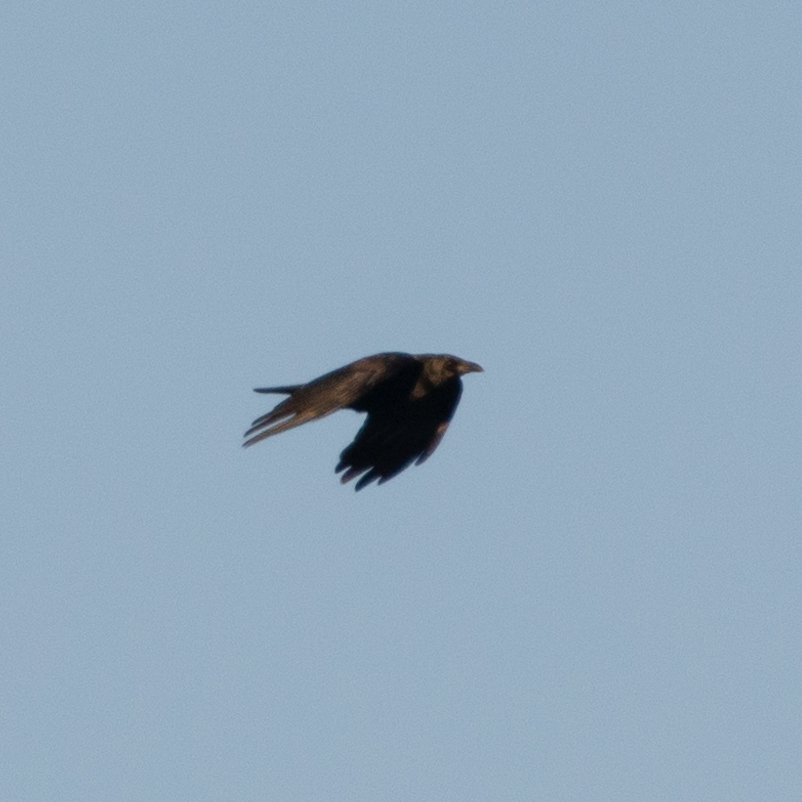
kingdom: Animalia
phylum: Chordata
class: Aves
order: Passeriformes
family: Corvidae
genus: Corvus
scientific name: Corvus corone
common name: Carrion crow
